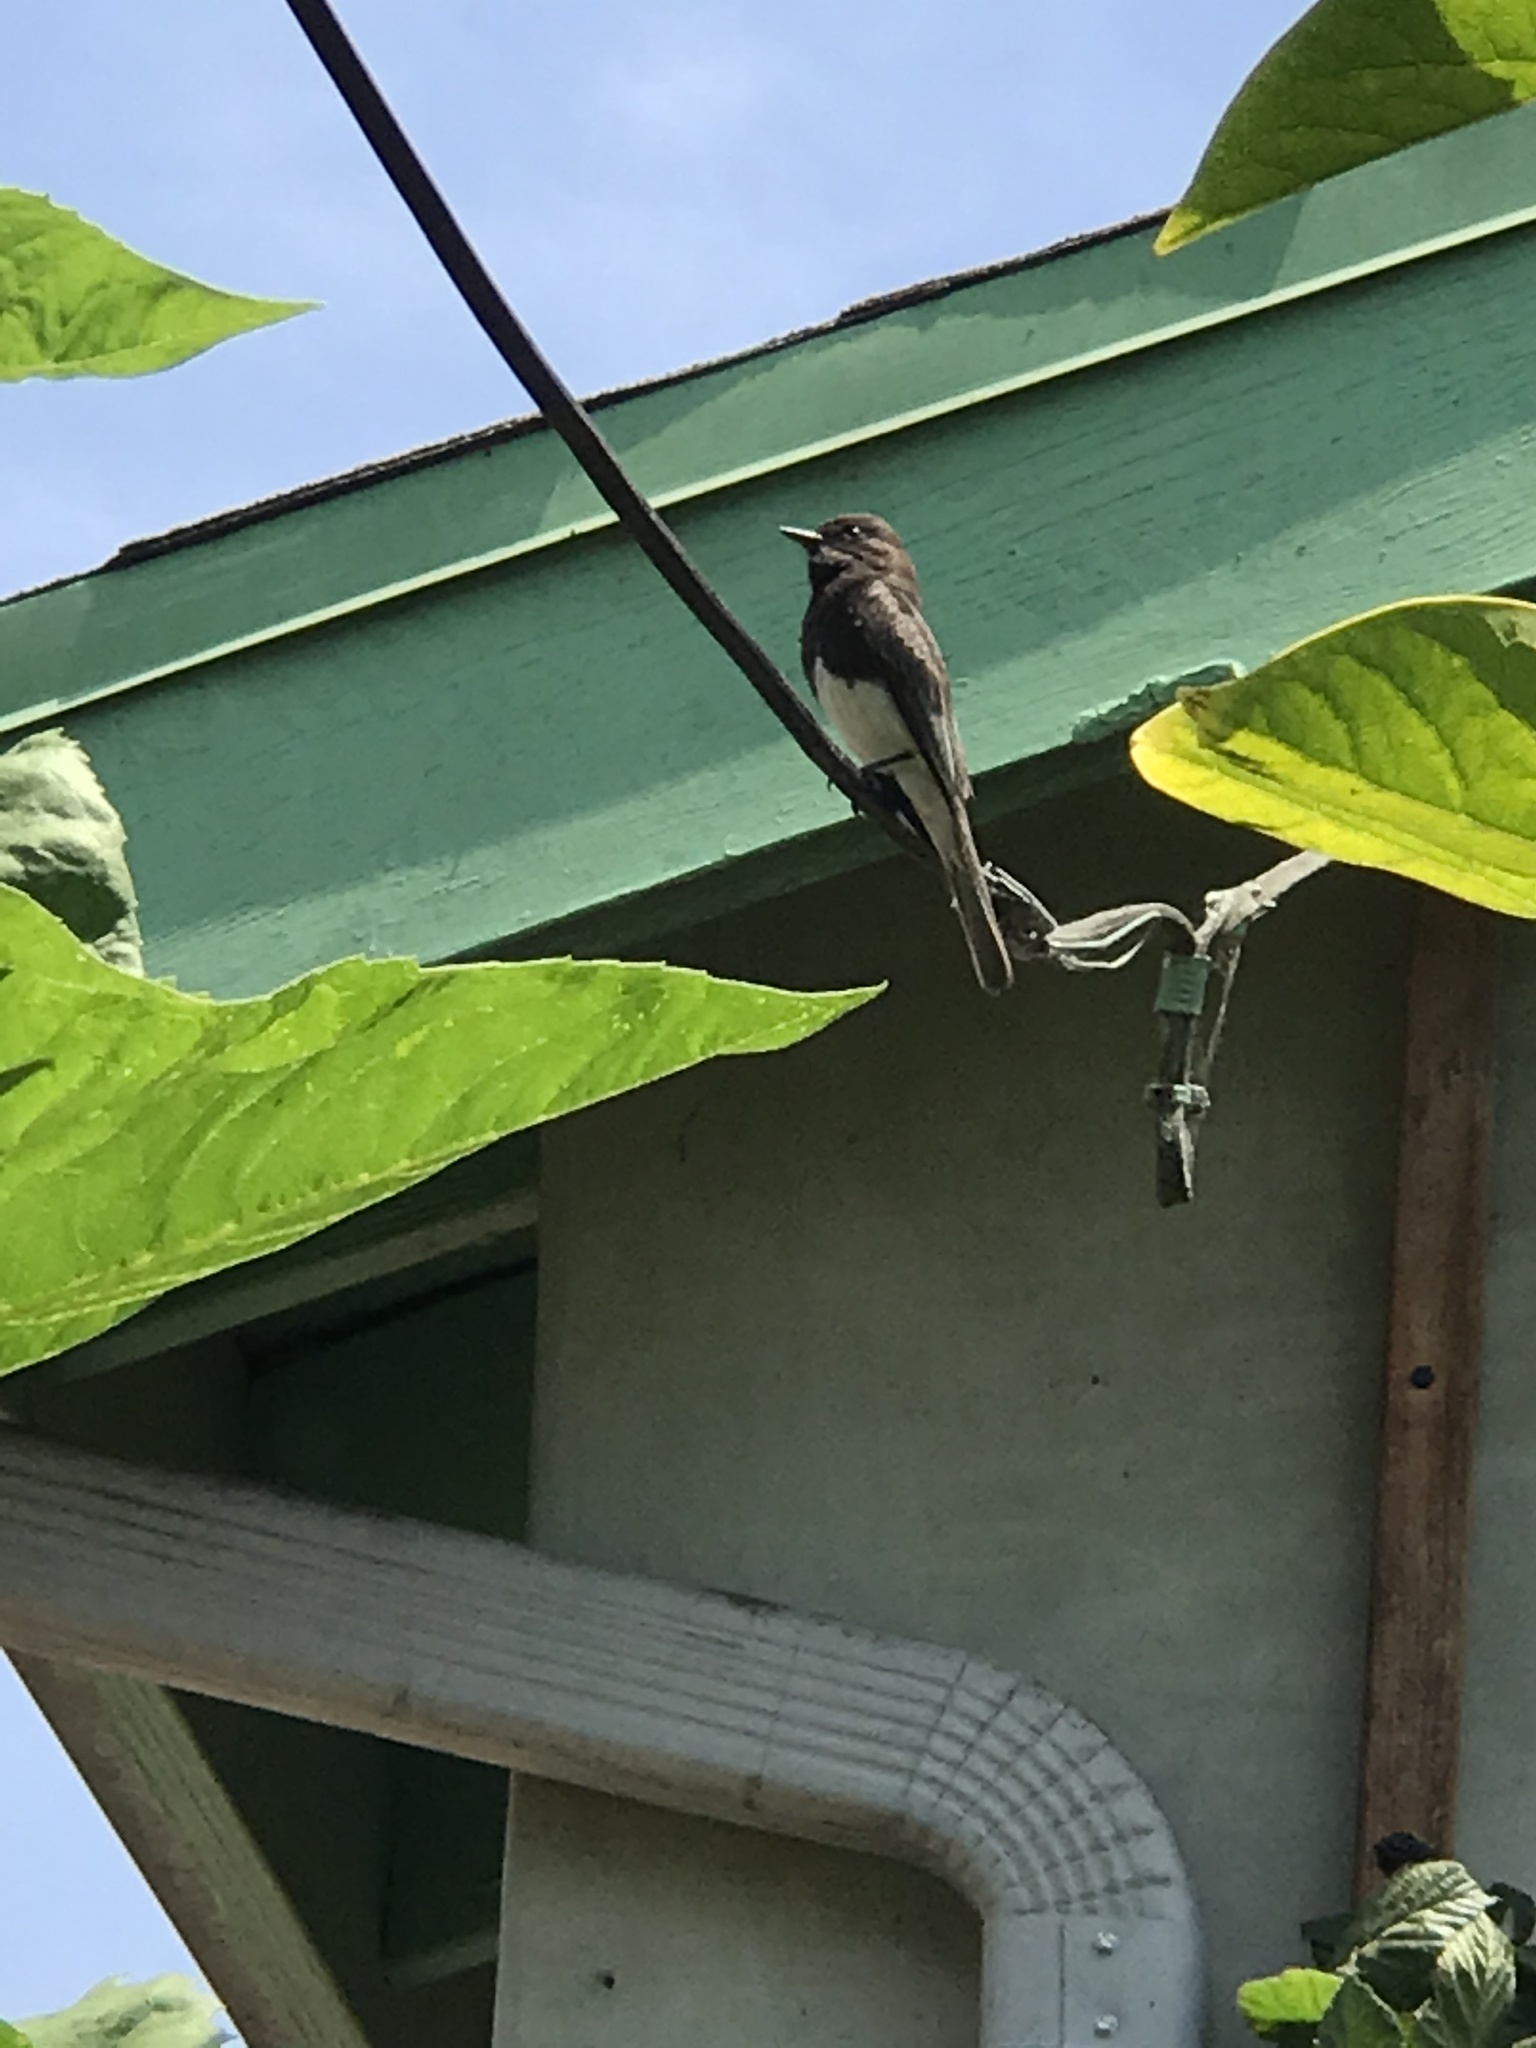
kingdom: Animalia
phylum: Chordata
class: Aves
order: Passeriformes
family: Tyrannidae
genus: Sayornis
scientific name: Sayornis nigricans
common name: Black phoebe
